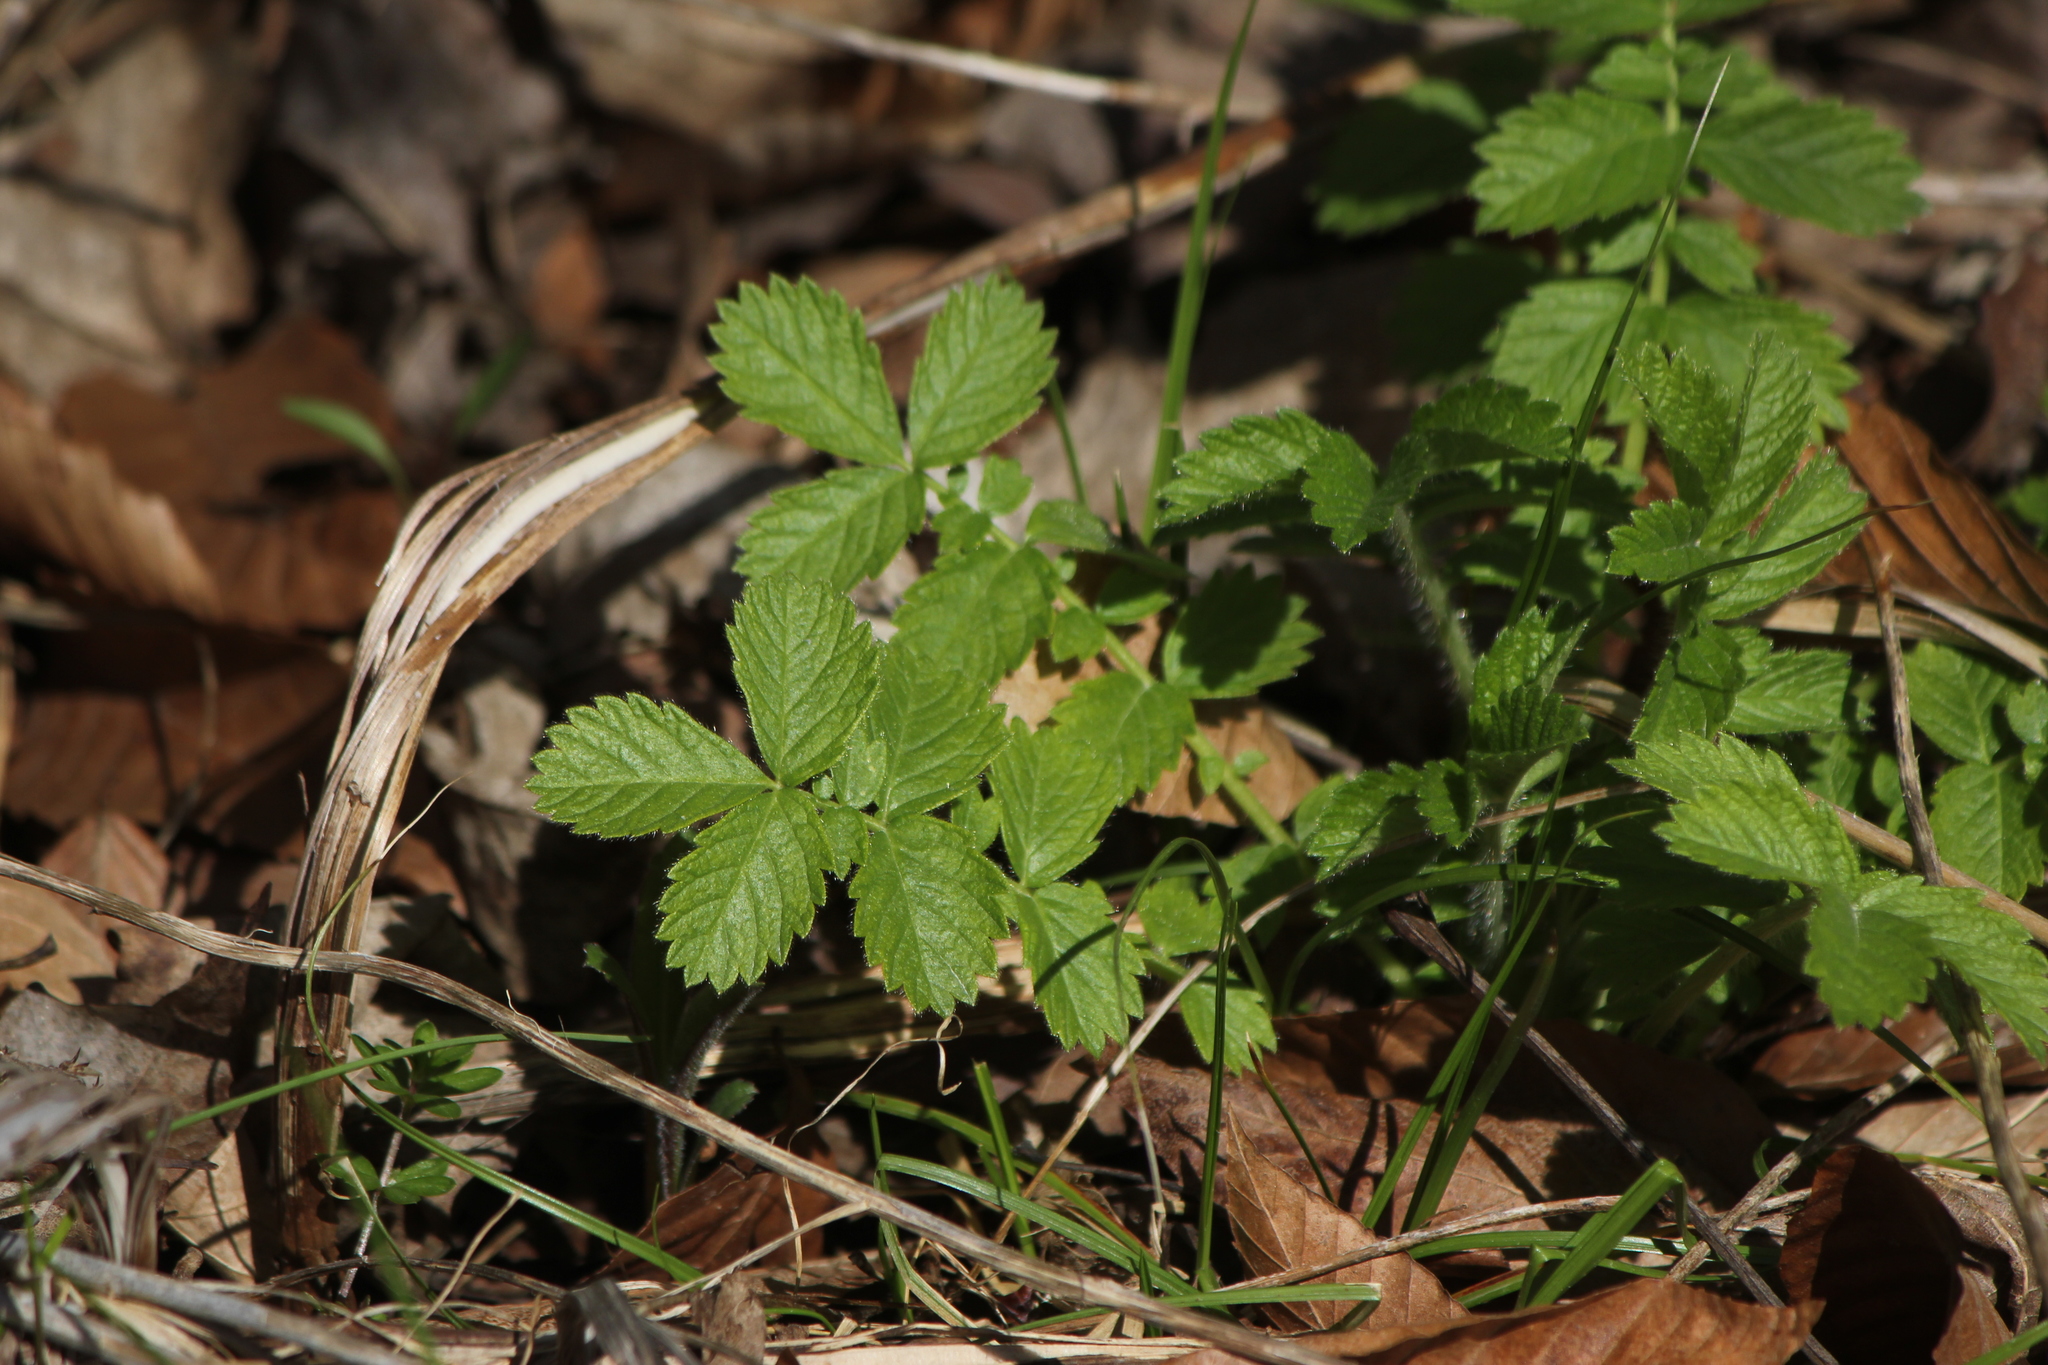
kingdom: Plantae
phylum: Tracheophyta
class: Magnoliopsida
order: Rosales
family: Rosaceae
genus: Agrimonia
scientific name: Agrimonia gryposepala
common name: Common agrimony
